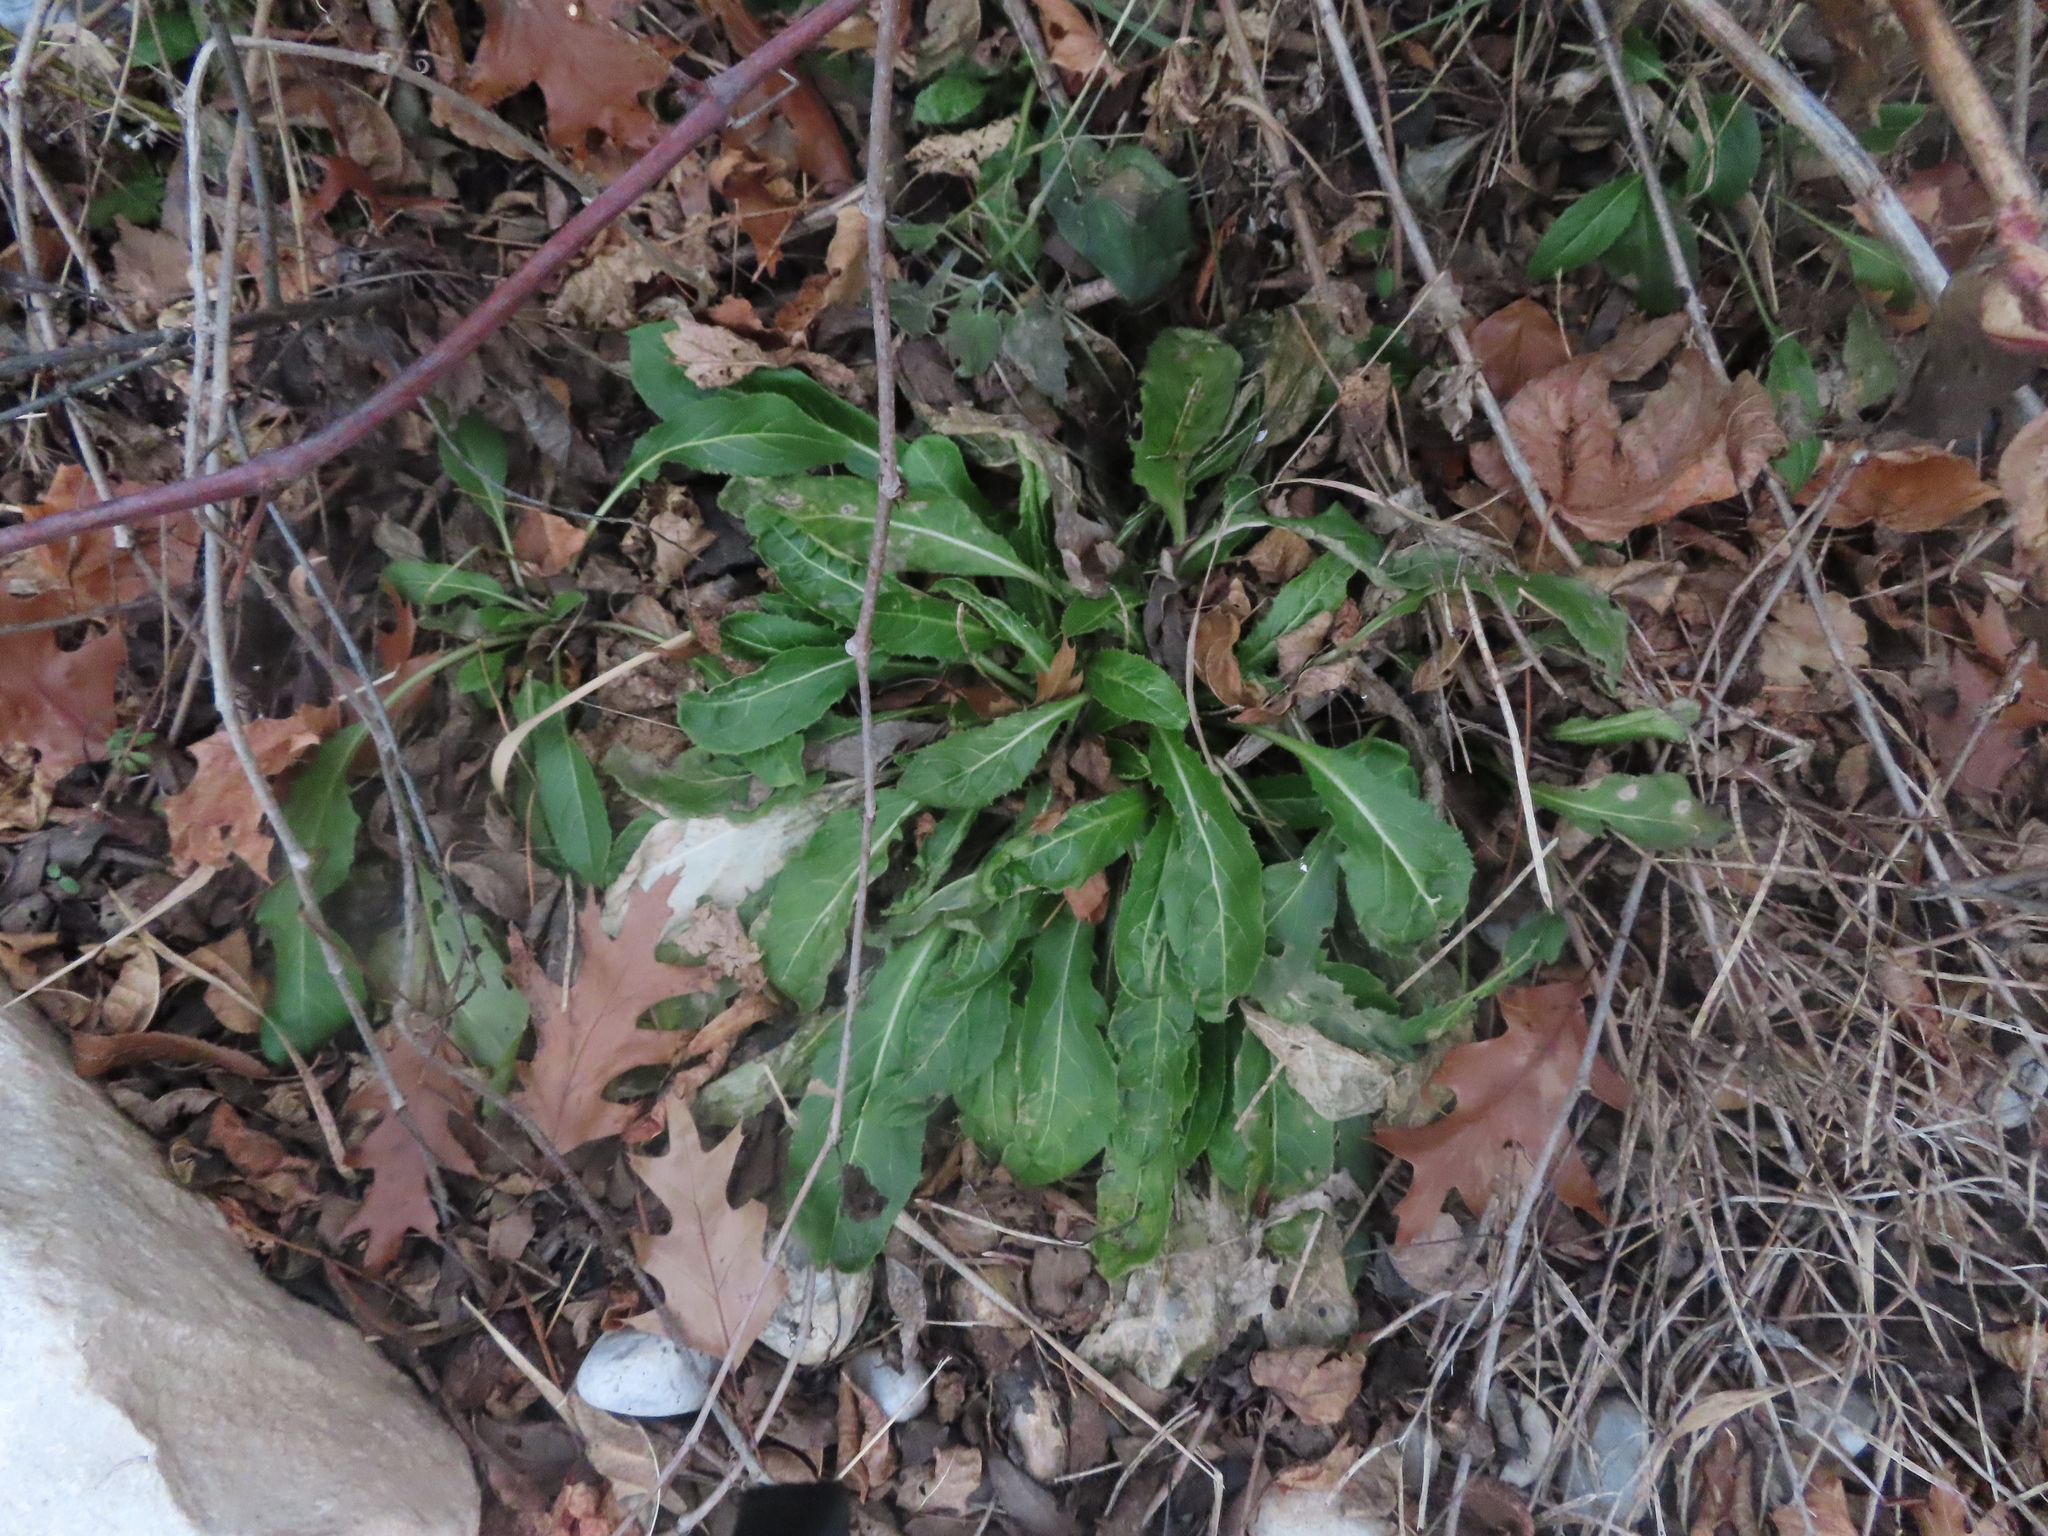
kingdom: Plantae
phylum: Tracheophyta
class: Magnoliopsida
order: Brassicales
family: Brassicaceae
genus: Hesperis
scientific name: Hesperis matronalis
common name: Dame's-violet
